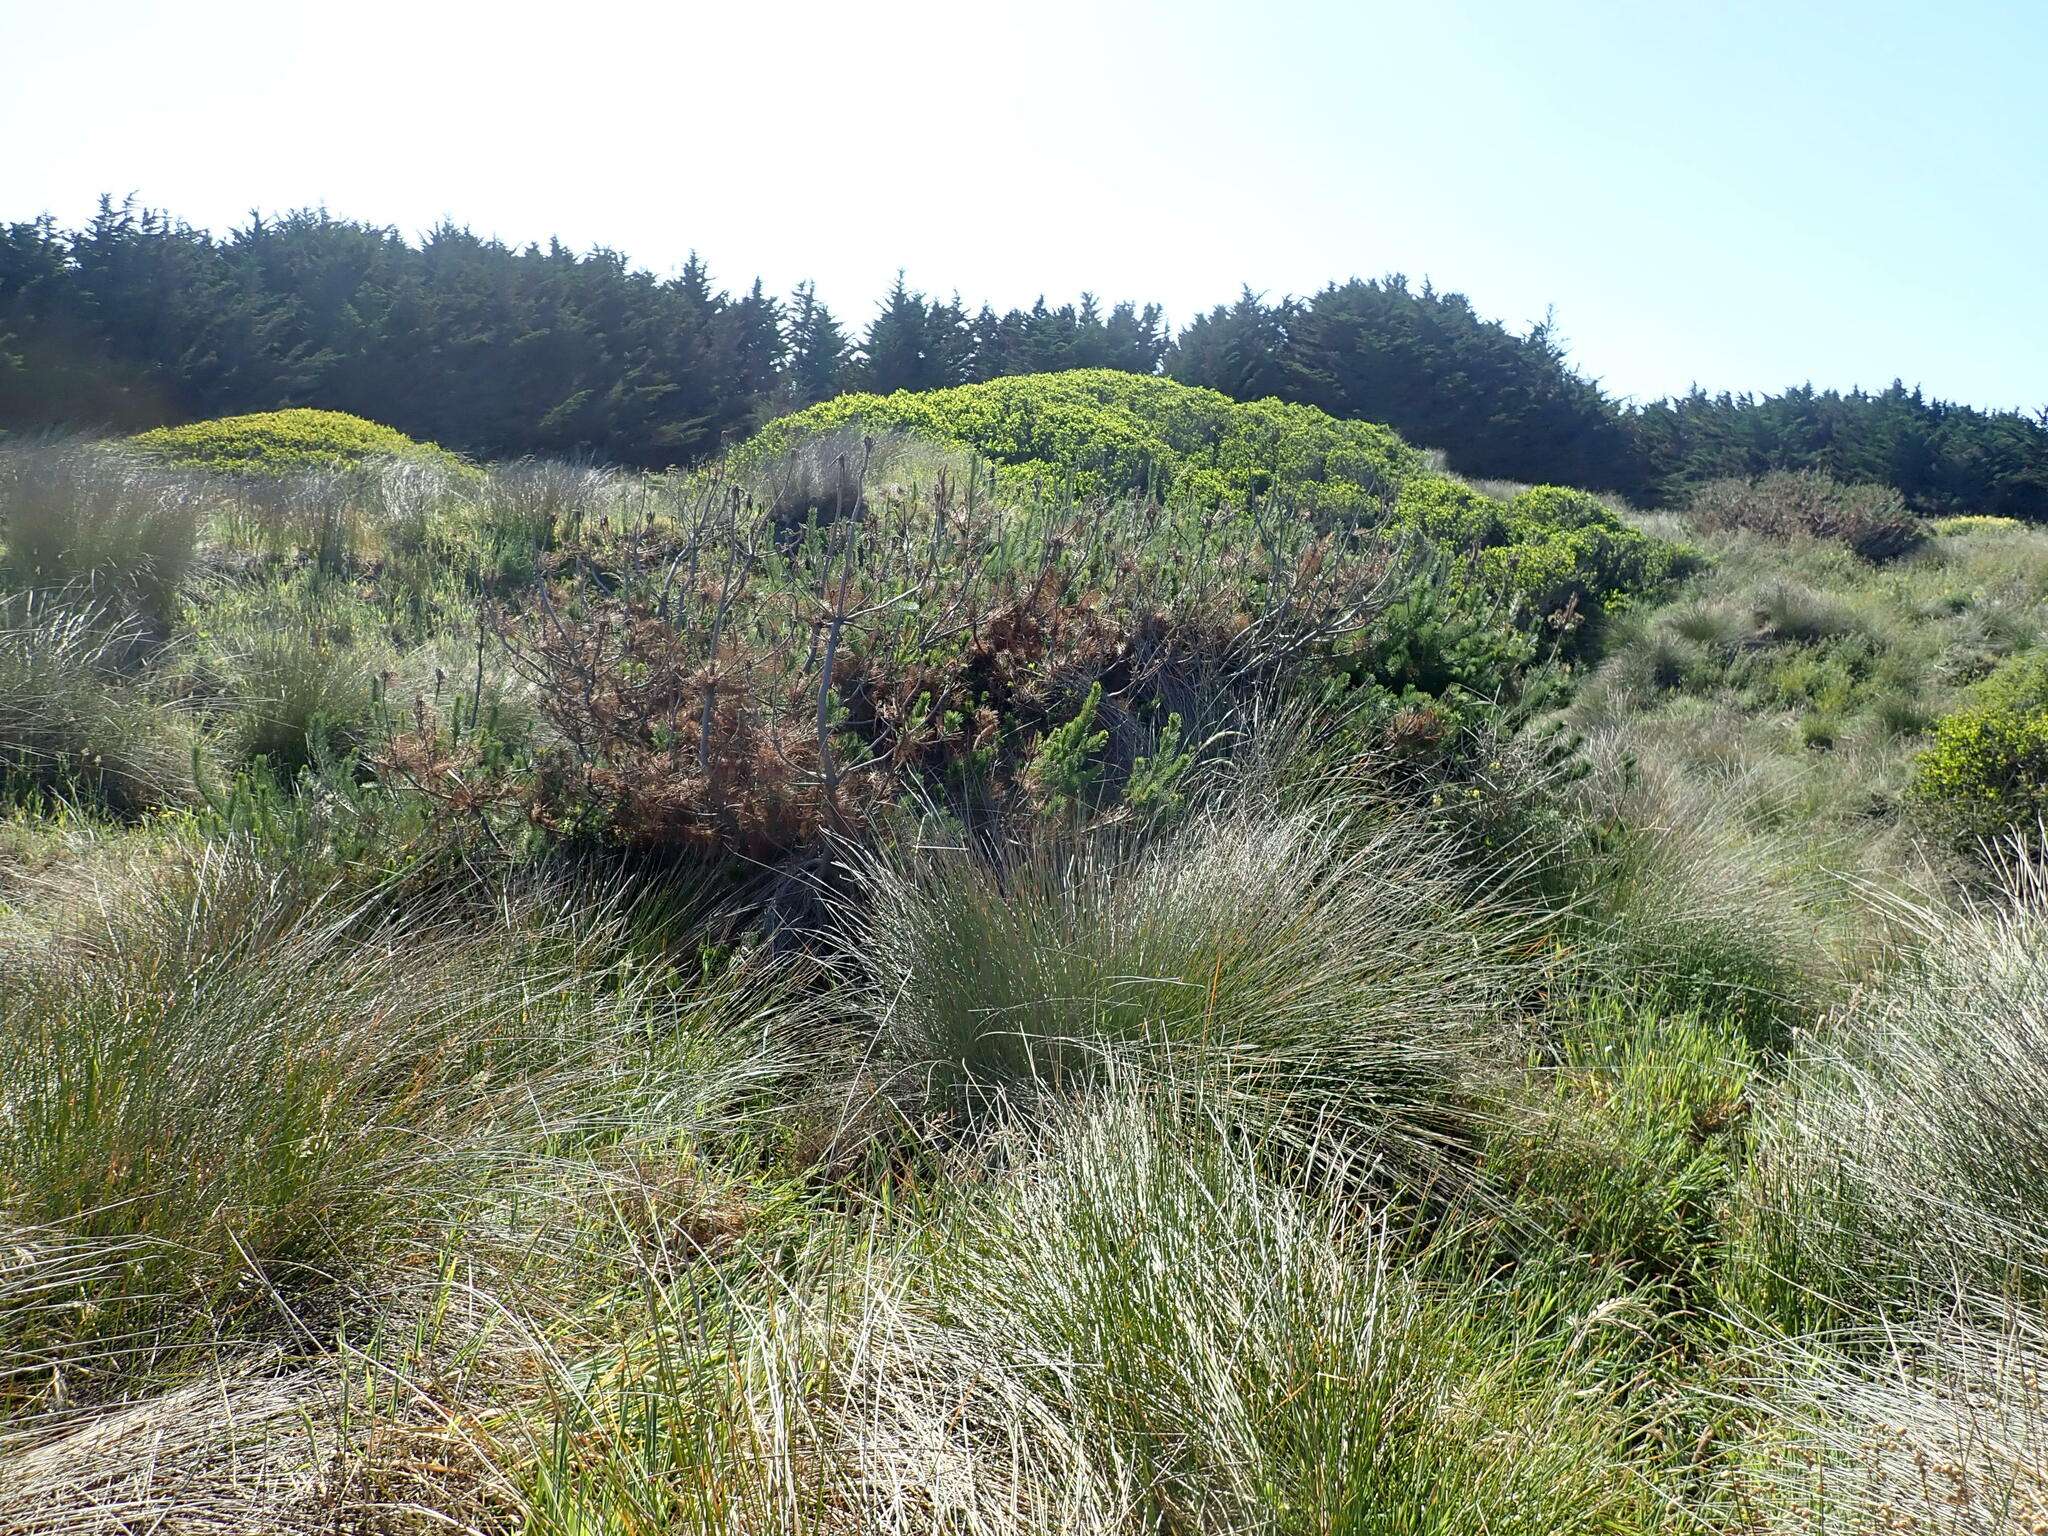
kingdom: Plantae
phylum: Tracheophyta
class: Pinopsida
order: Pinales
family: Pinaceae
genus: Pinus
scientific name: Pinus radiata
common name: Monterey pine
